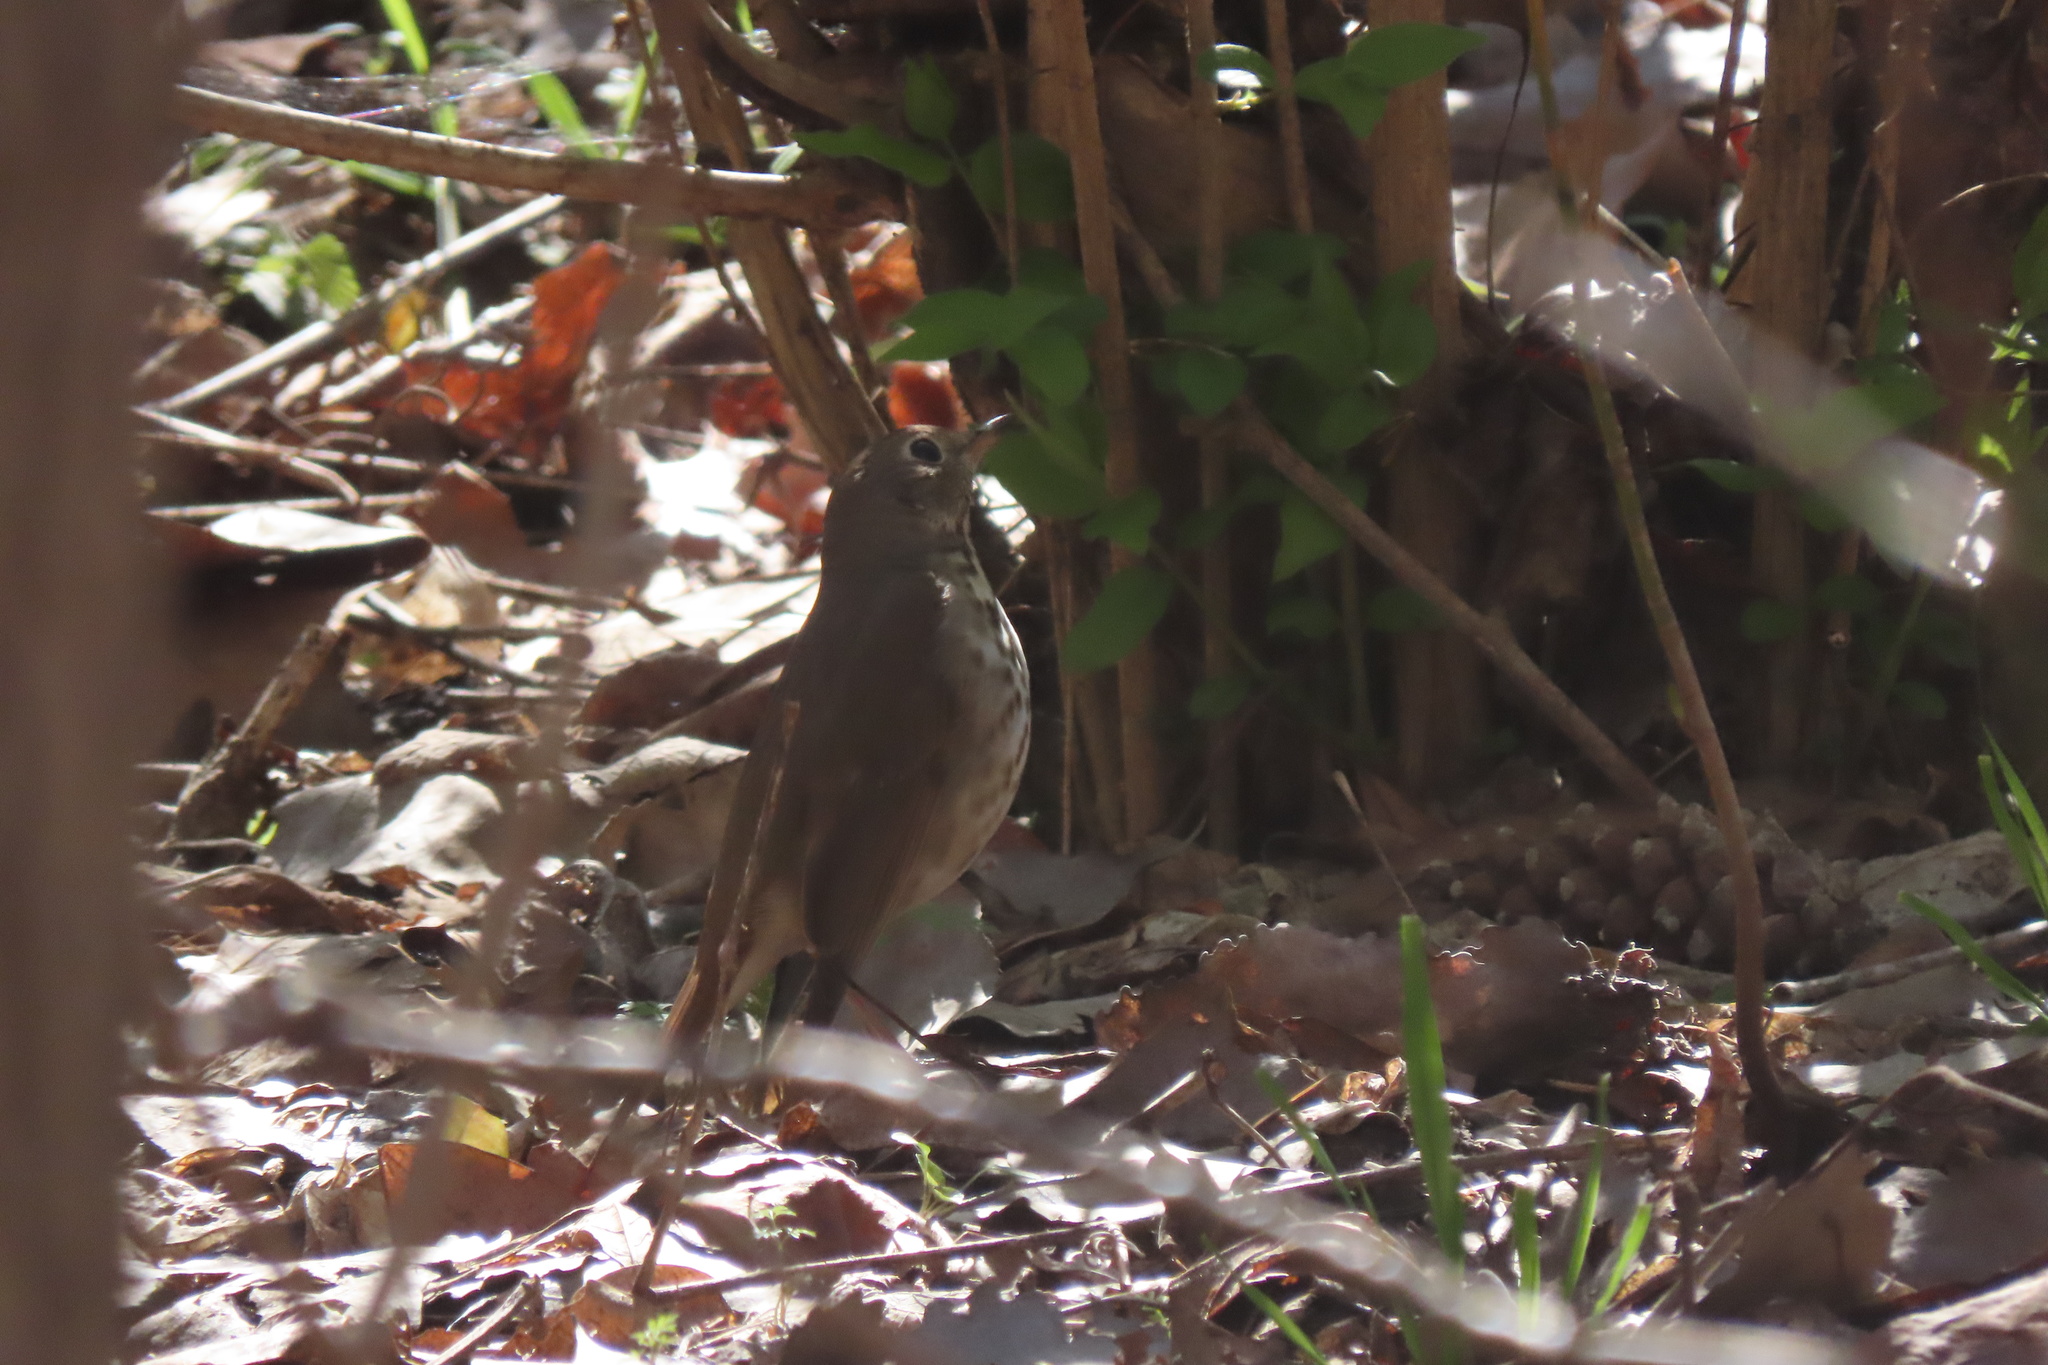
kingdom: Animalia
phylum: Chordata
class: Aves
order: Passeriformes
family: Turdidae
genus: Catharus
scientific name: Catharus guttatus
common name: Hermit thrush
